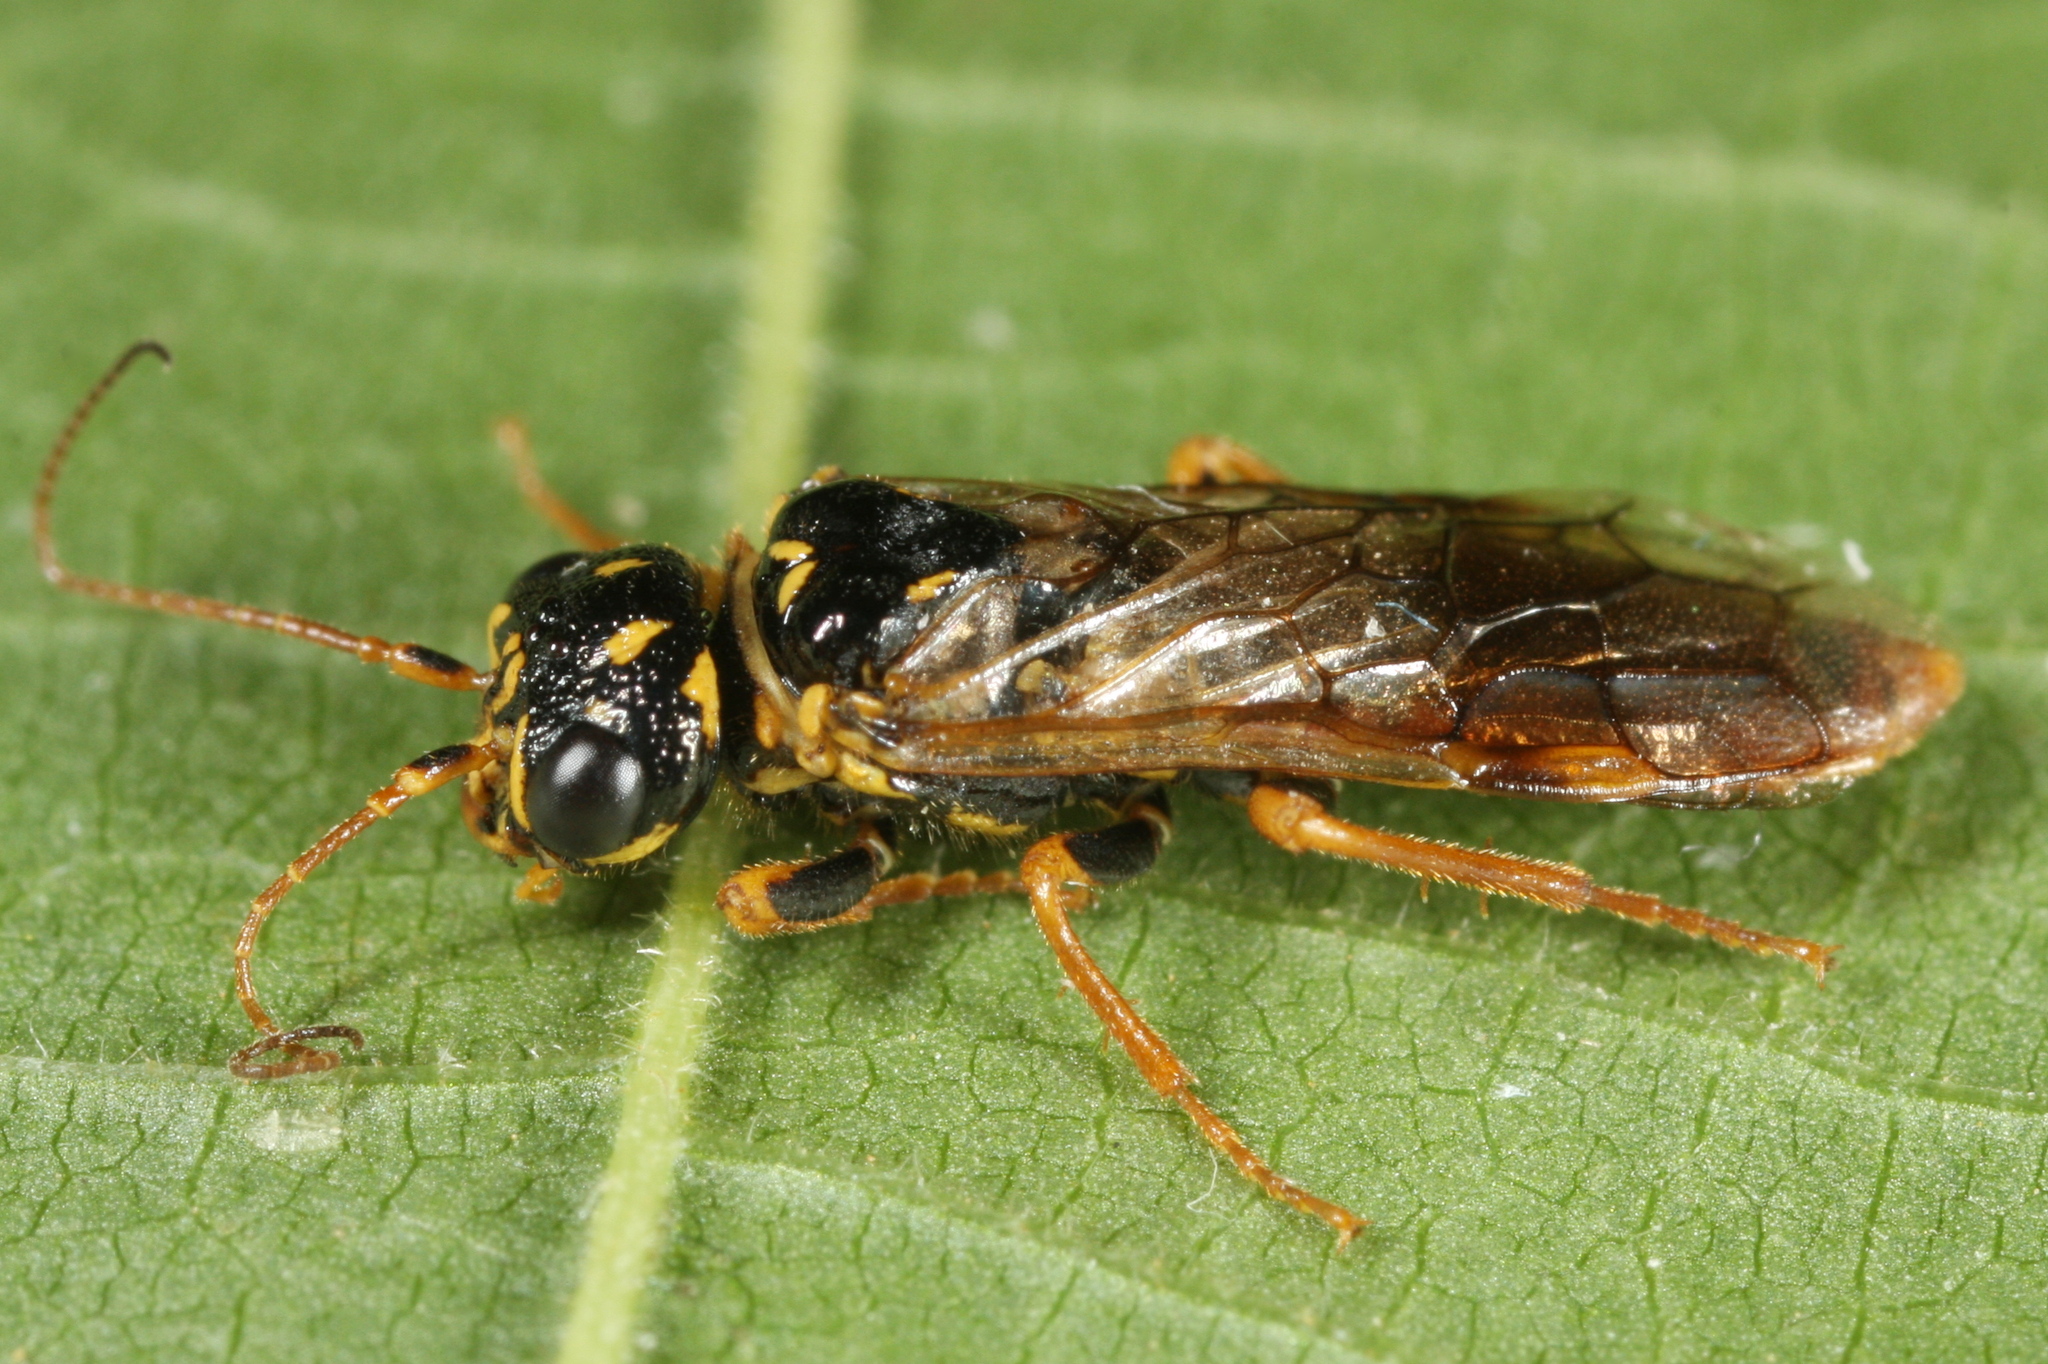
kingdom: Animalia
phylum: Arthropoda
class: Insecta
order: Hymenoptera
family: Pamphiliidae
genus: Acantholyda
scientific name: Acantholyda laricis
